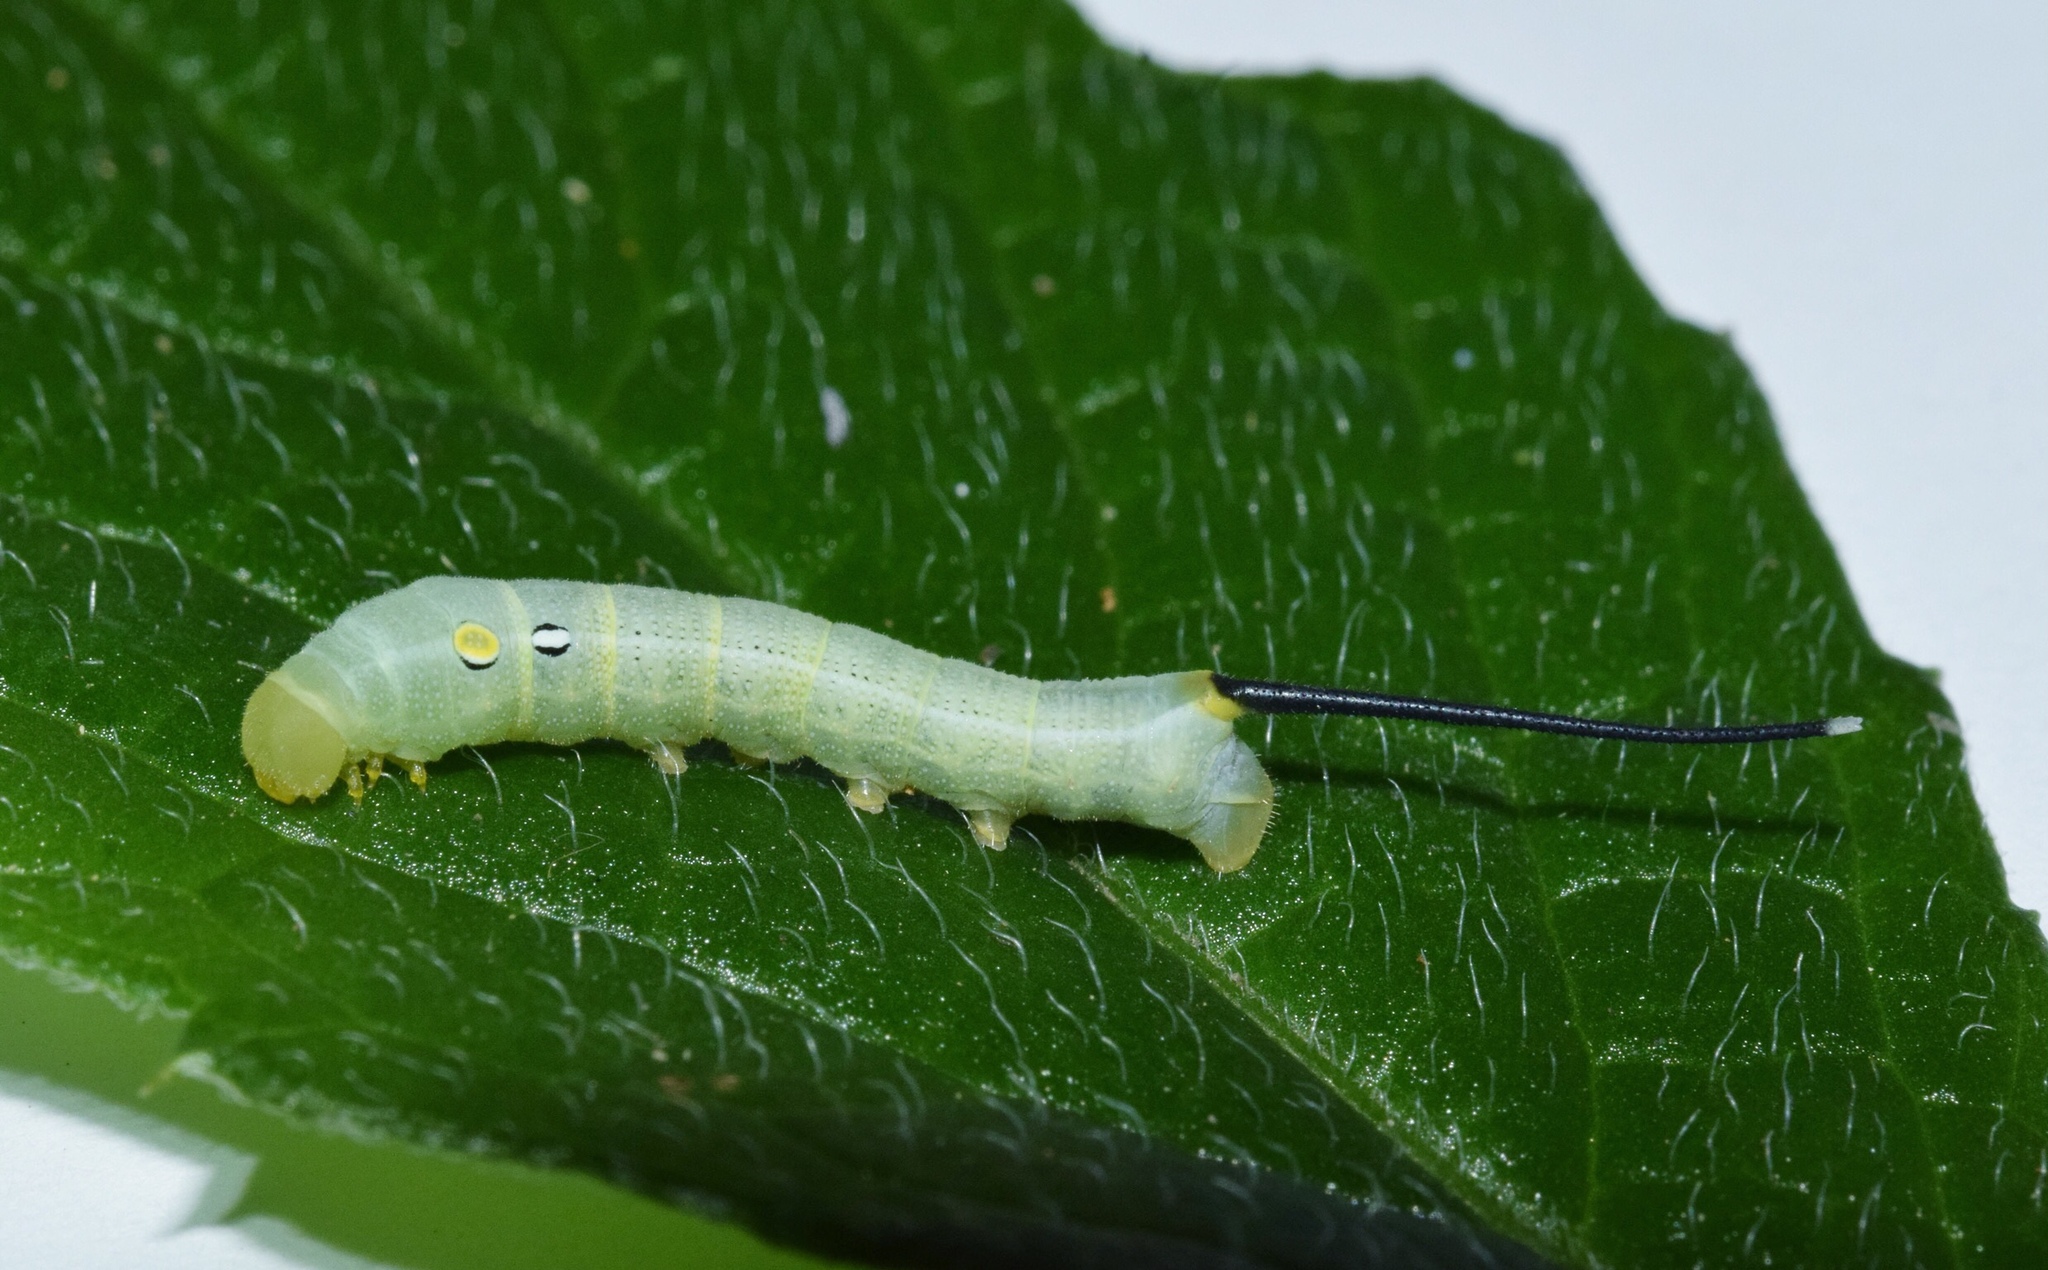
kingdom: Animalia
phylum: Arthropoda
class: Insecta
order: Lepidoptera
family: Sphingidae
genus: Hippotion
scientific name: Hippotion eson
